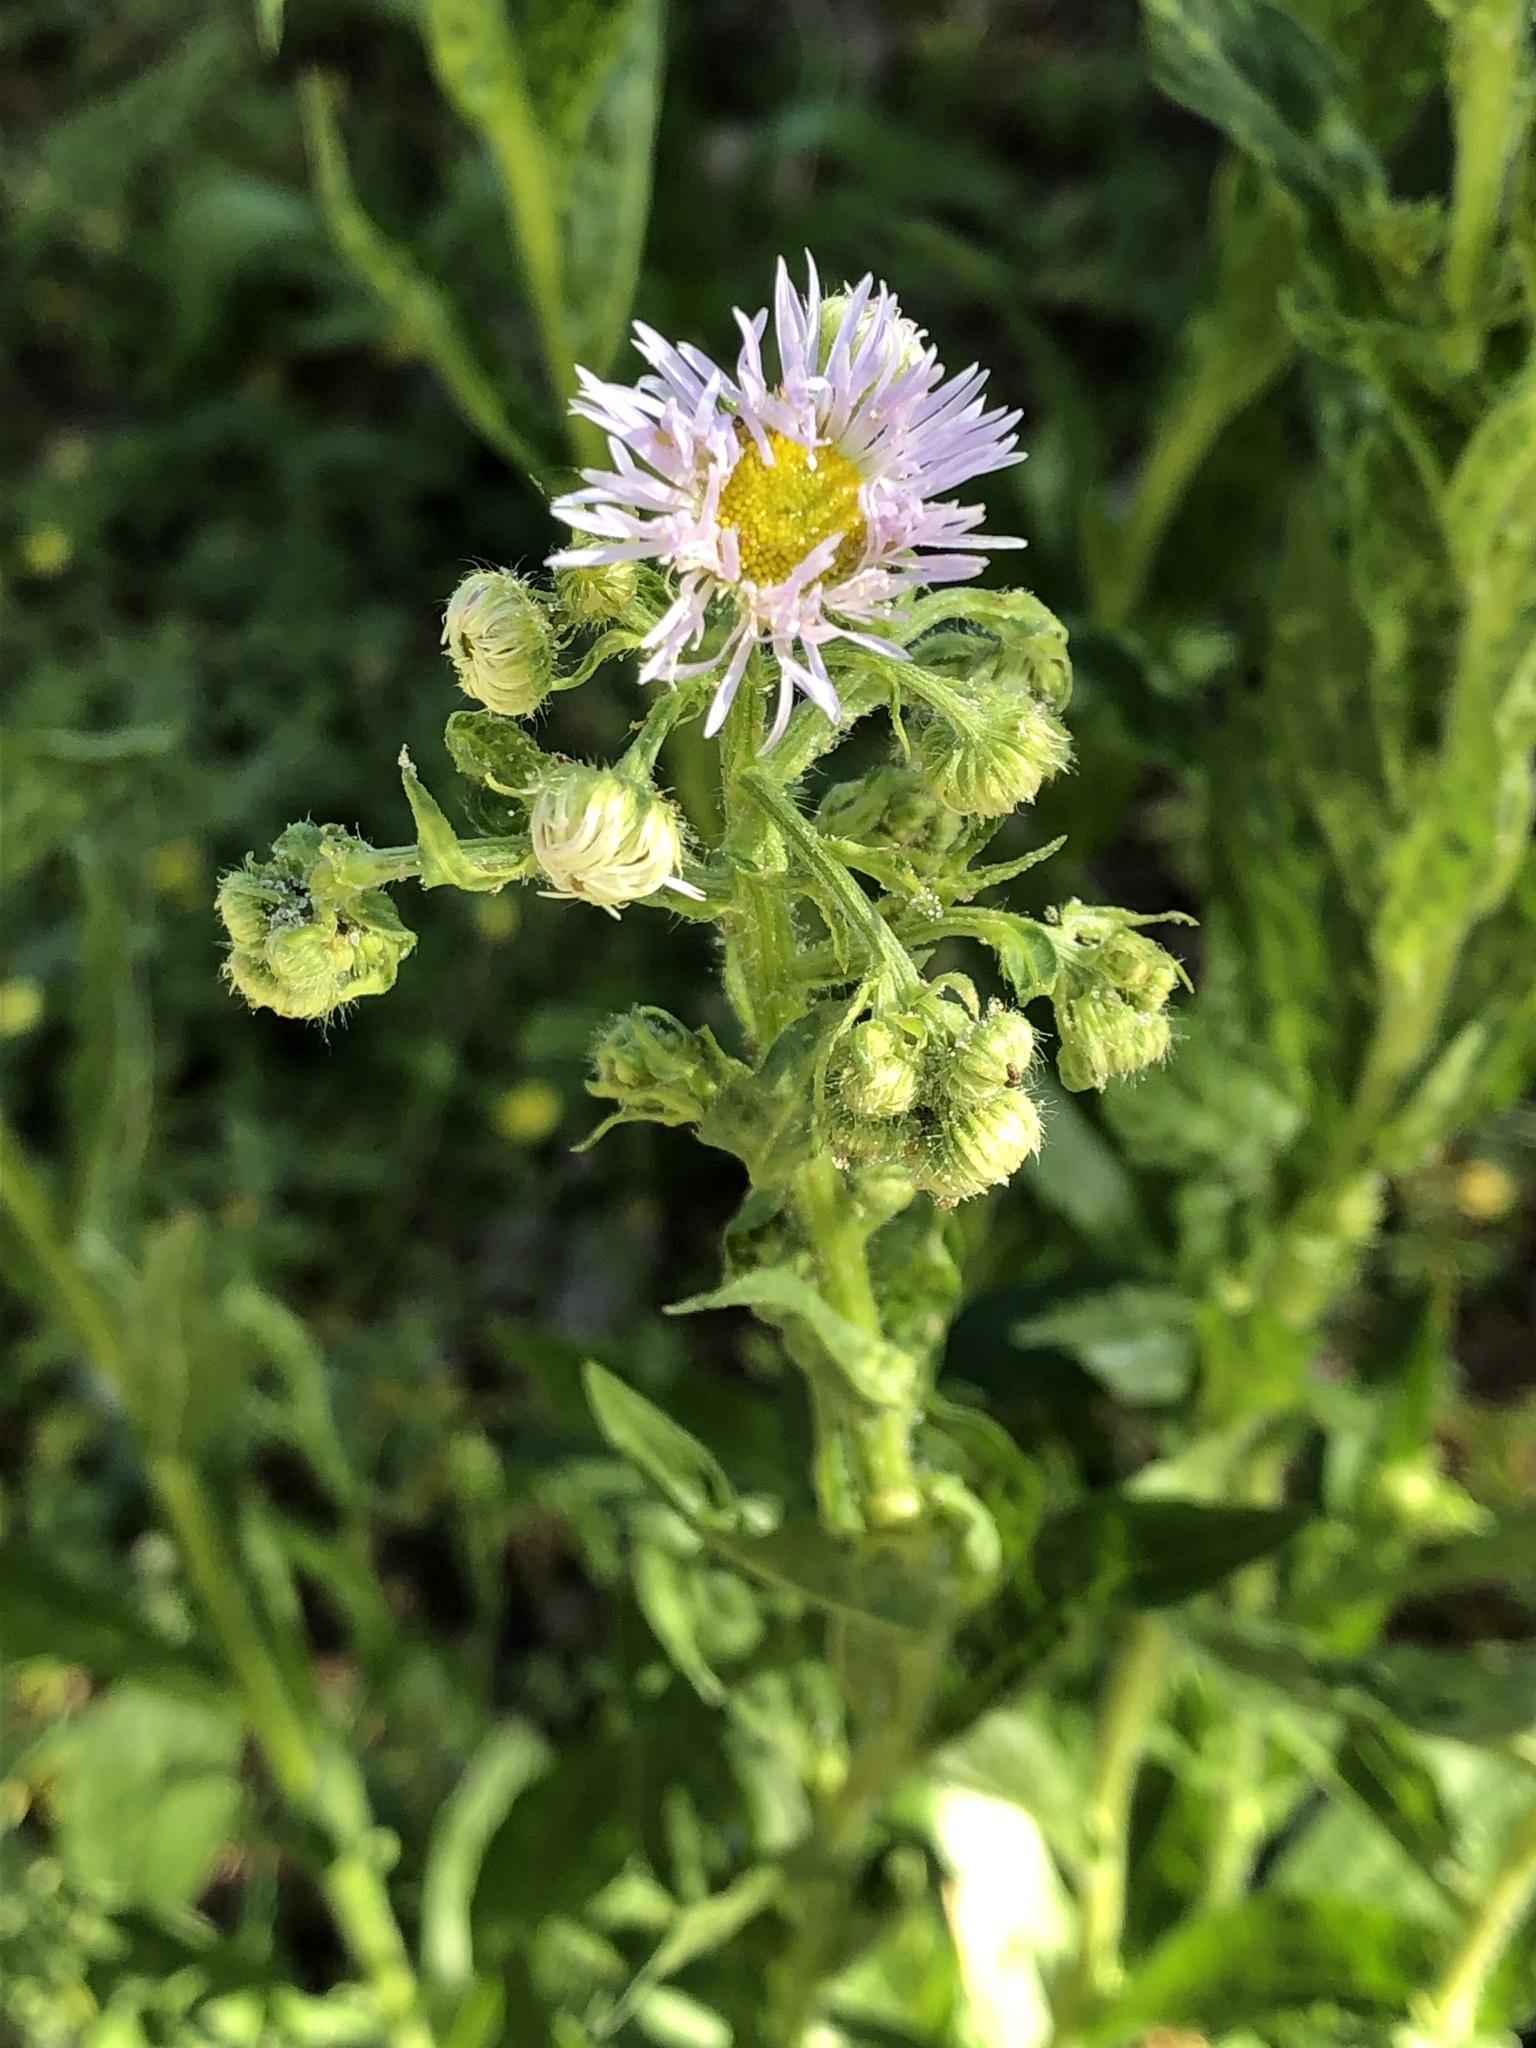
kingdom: Plantae
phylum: Tracheophyta
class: Magnoliopsida
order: Asterales
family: Asteraceae
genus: Erigeron
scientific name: Erigeron annuus
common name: Tall fleabane
